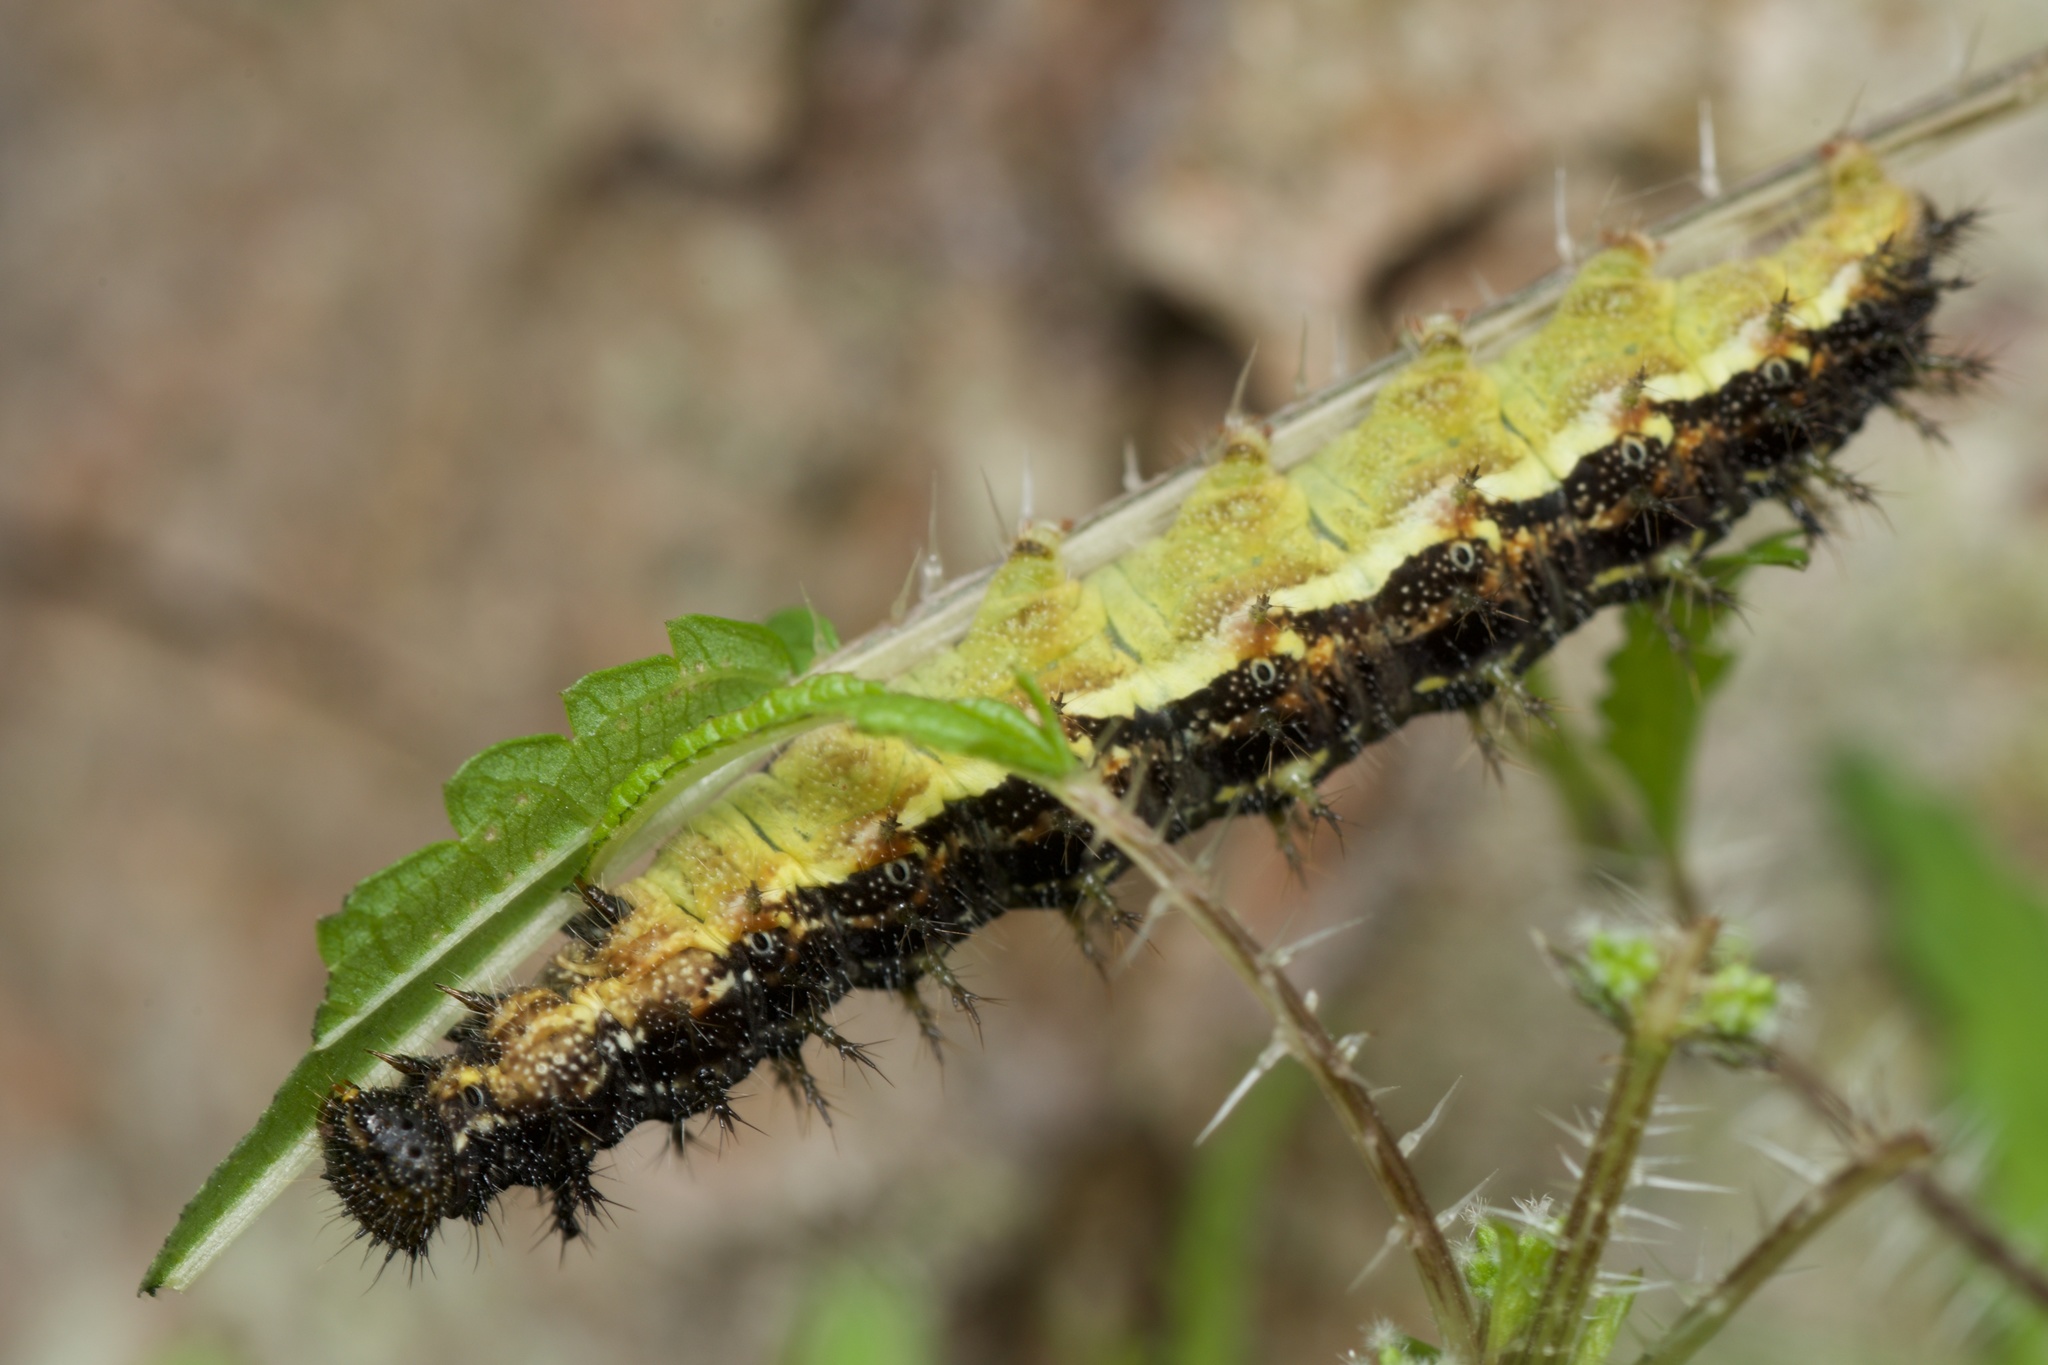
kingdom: Animalia
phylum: Arthropoda
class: Insecta
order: Lepidoptera
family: Nymphalidae
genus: Vanessa
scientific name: Vanessa itea
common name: Yellow admiral
